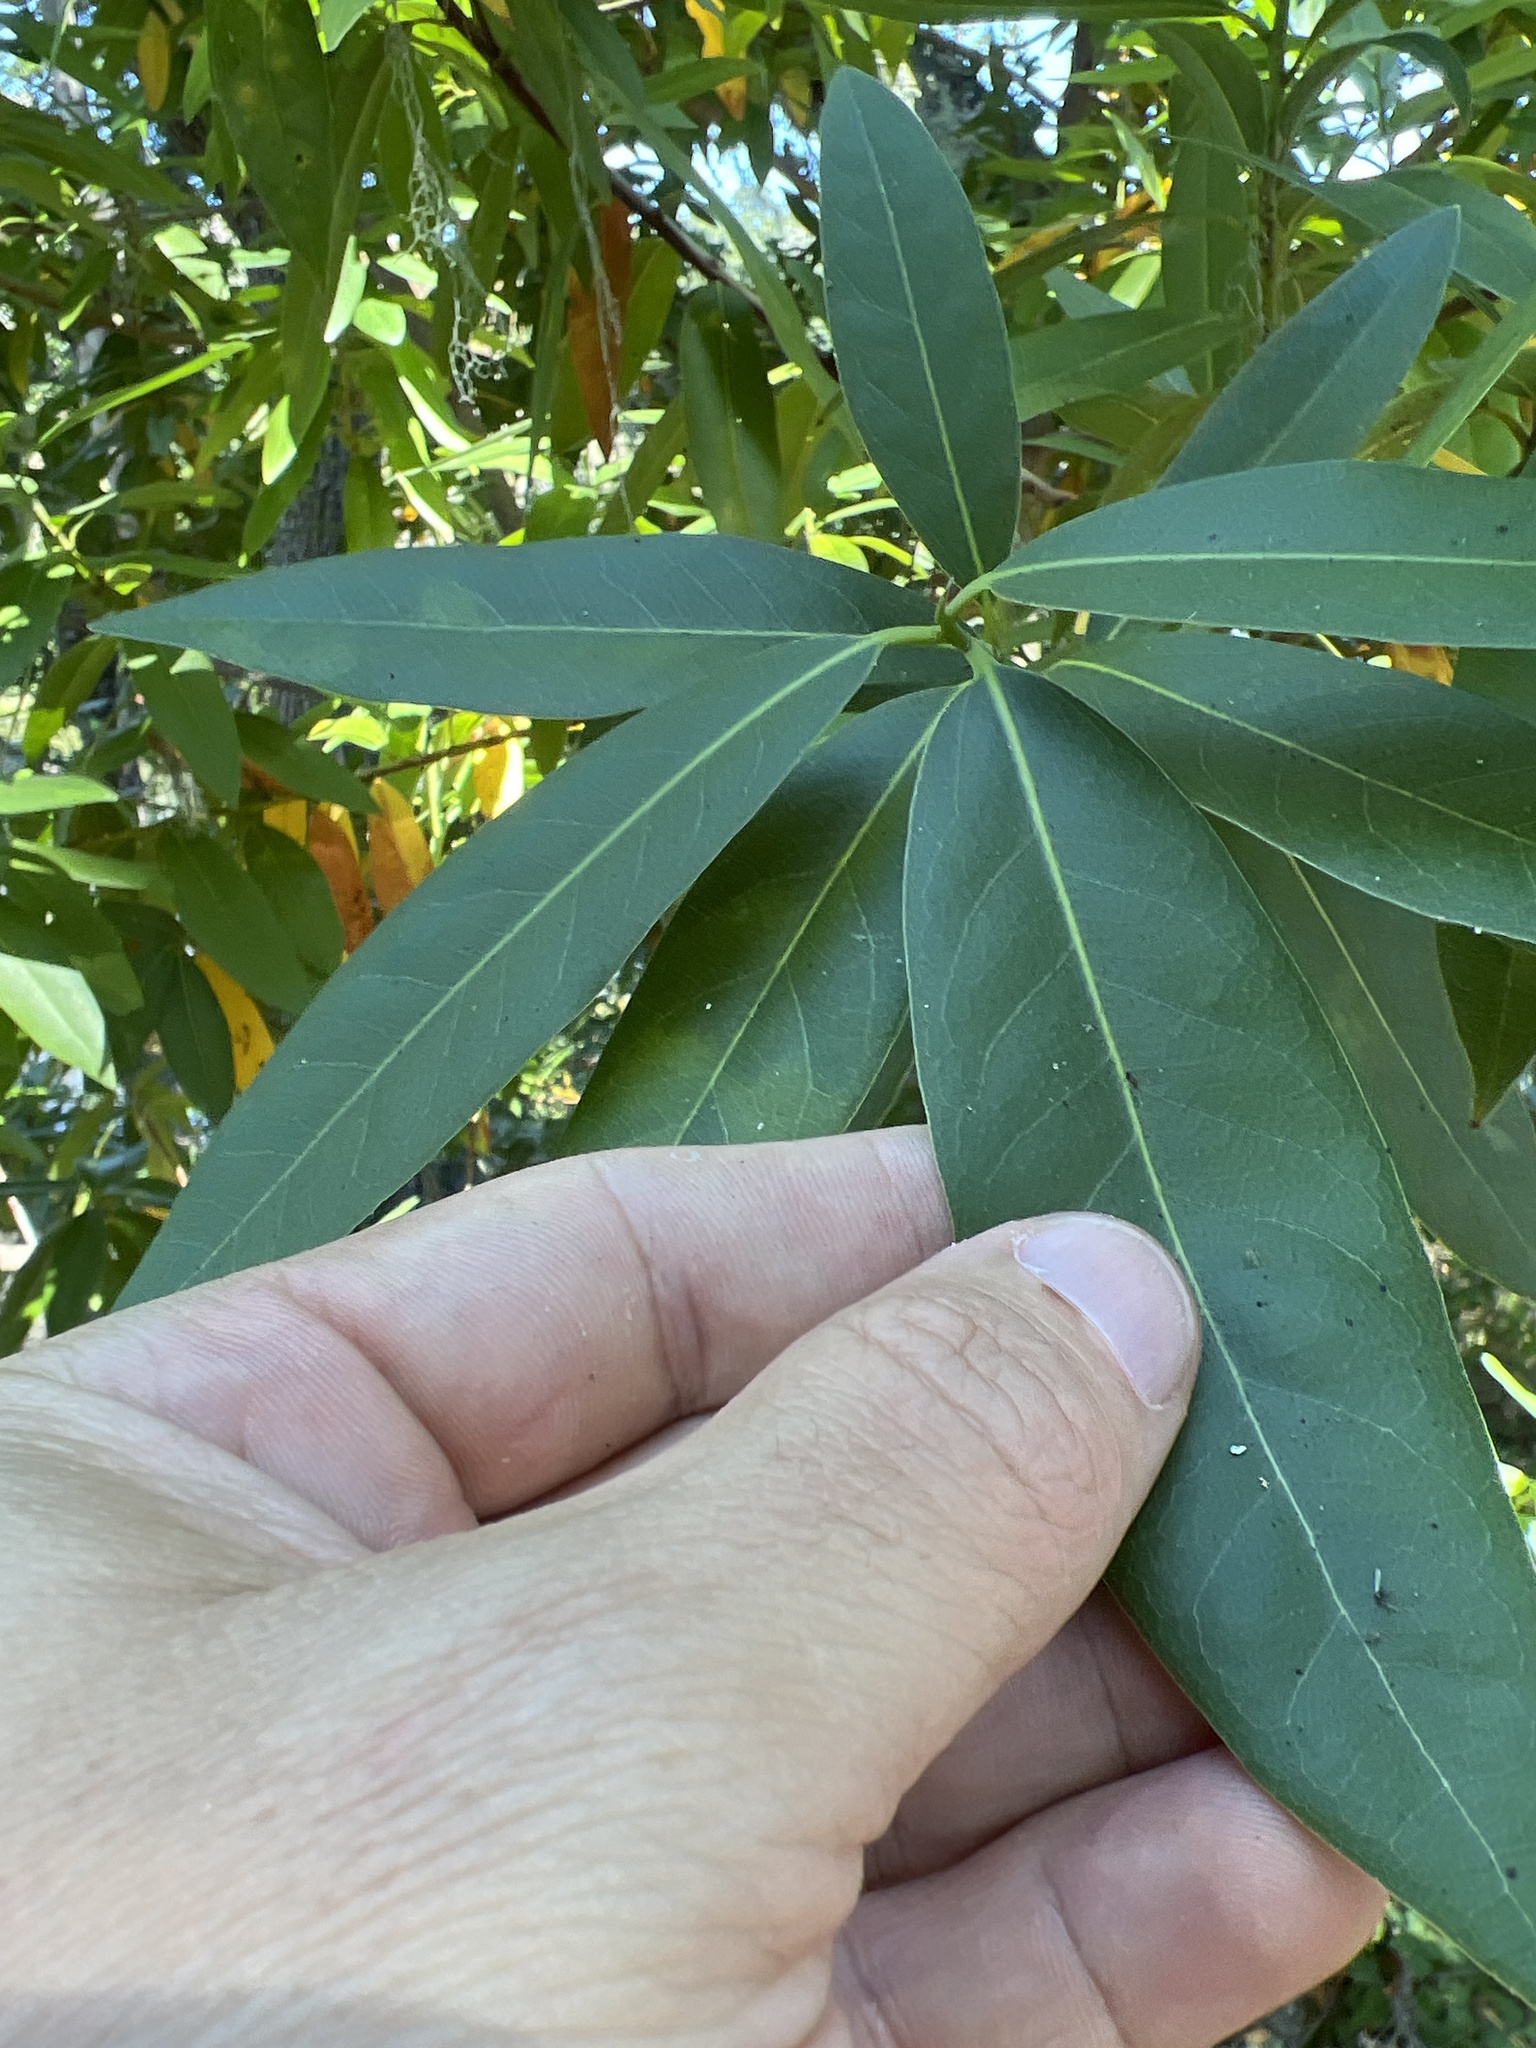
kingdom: Plantae
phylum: Tracheophyta
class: Magnoliopsida
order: Laurales
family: Lauraceae
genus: Umbellularia
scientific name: Umbellularia californica
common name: California bay
